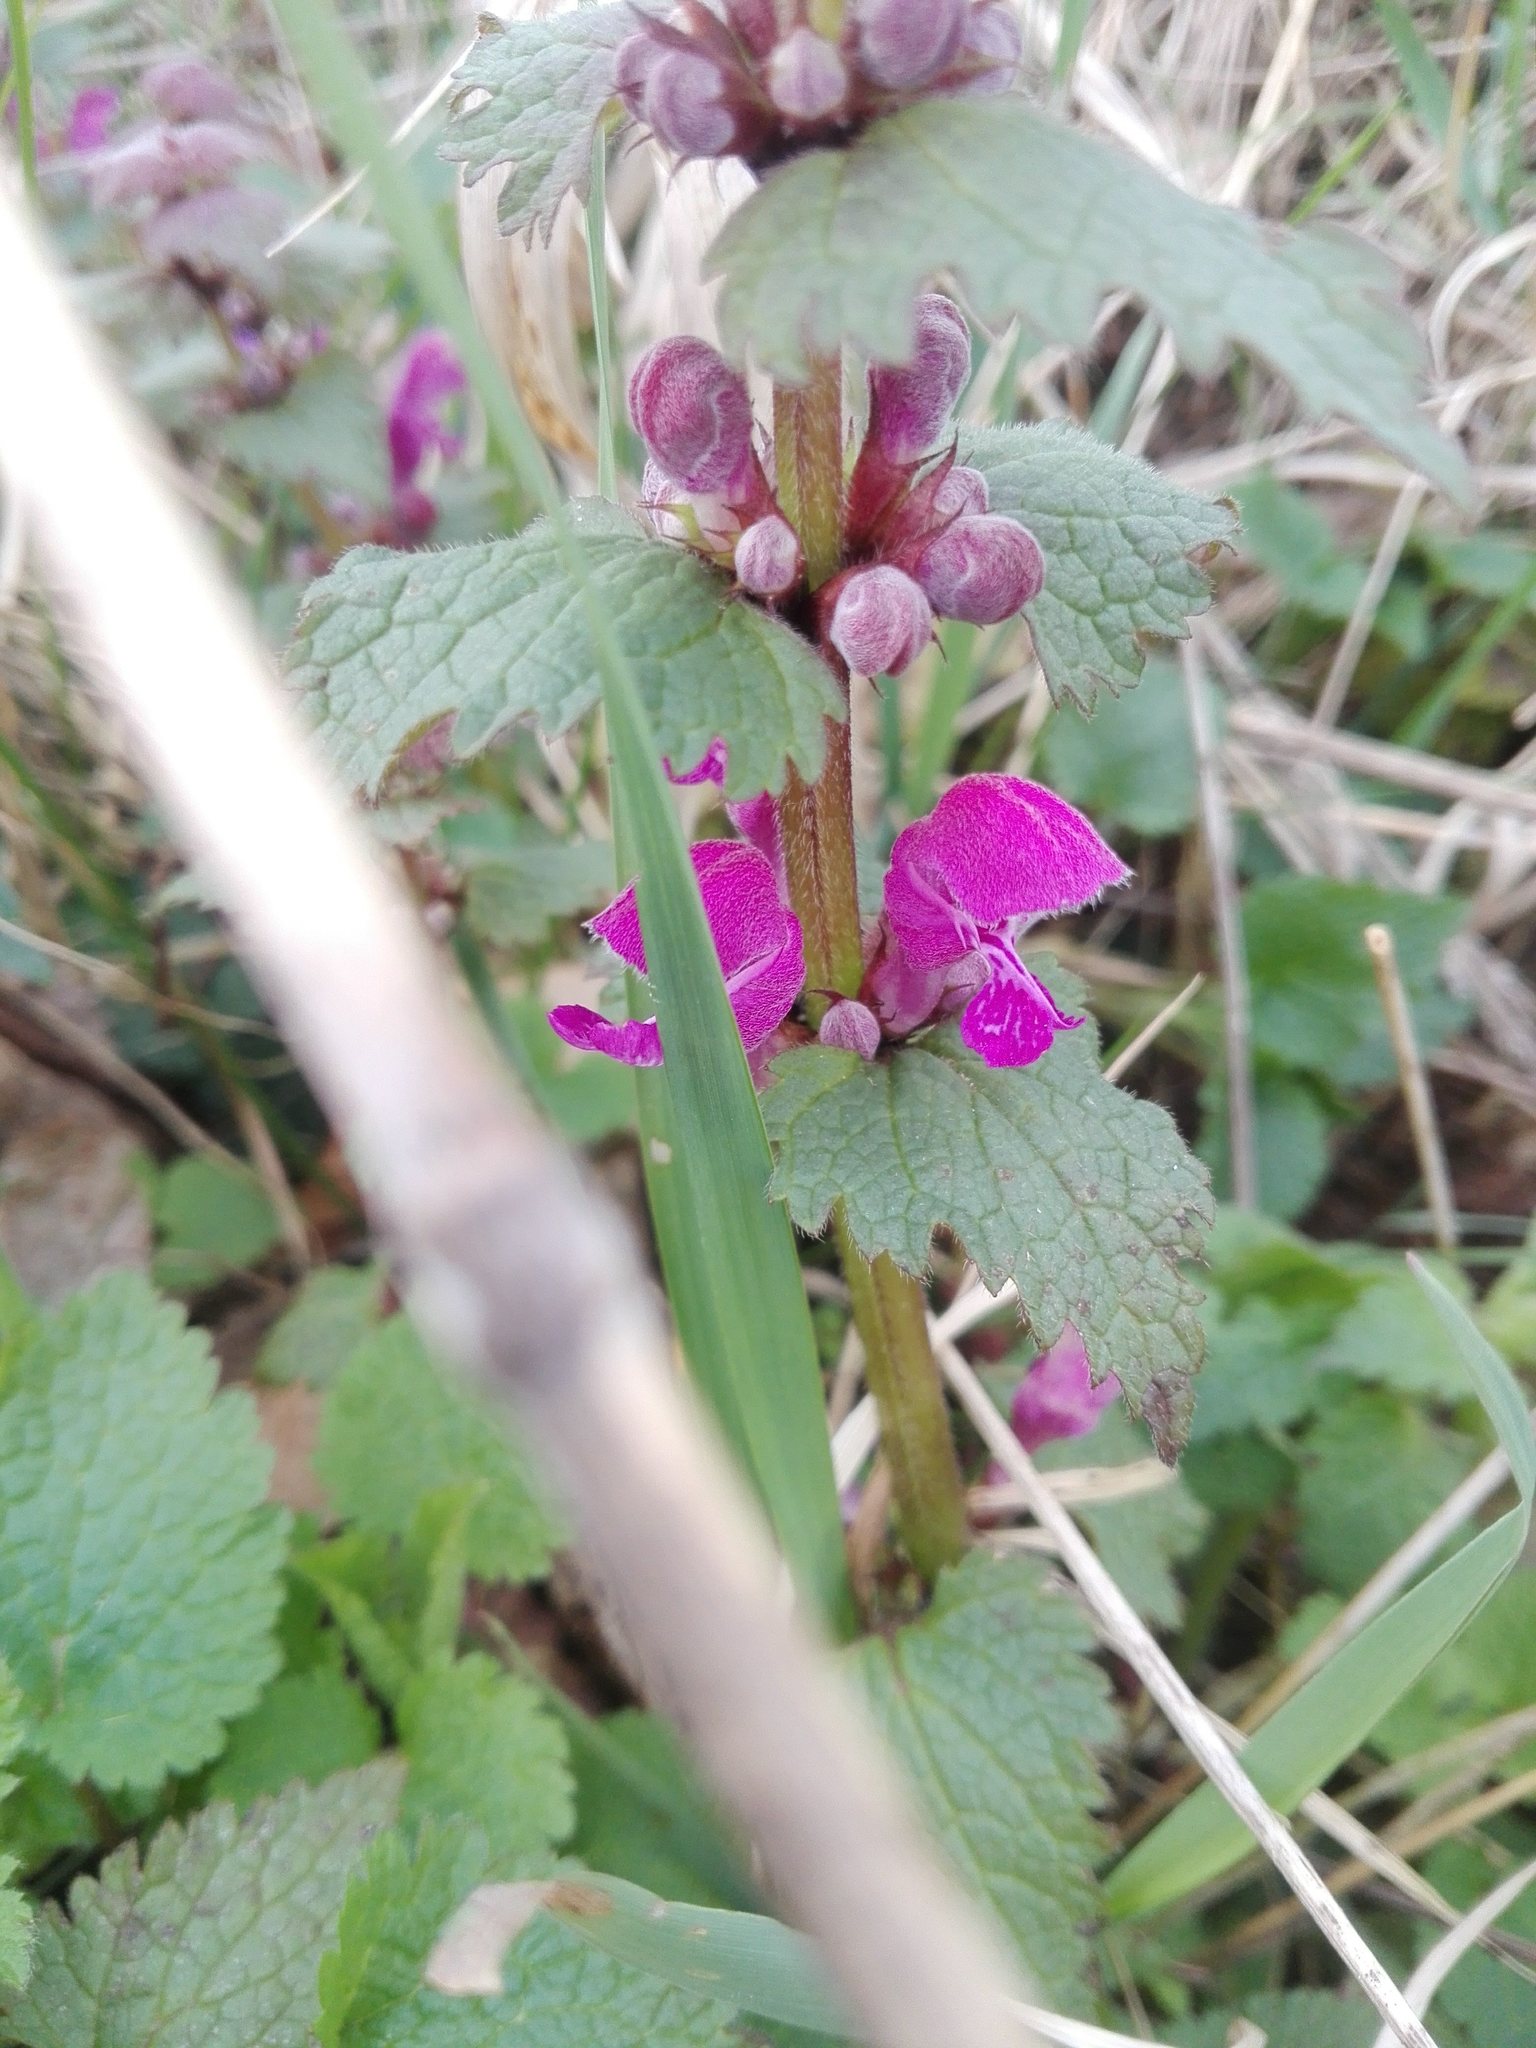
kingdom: Plantae
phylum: Tracheophyta
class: Magnoliopsida
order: Lamiales
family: Lamiaceae
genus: Lamium
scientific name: Lamium maculatum
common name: Spotted dead-nettle
